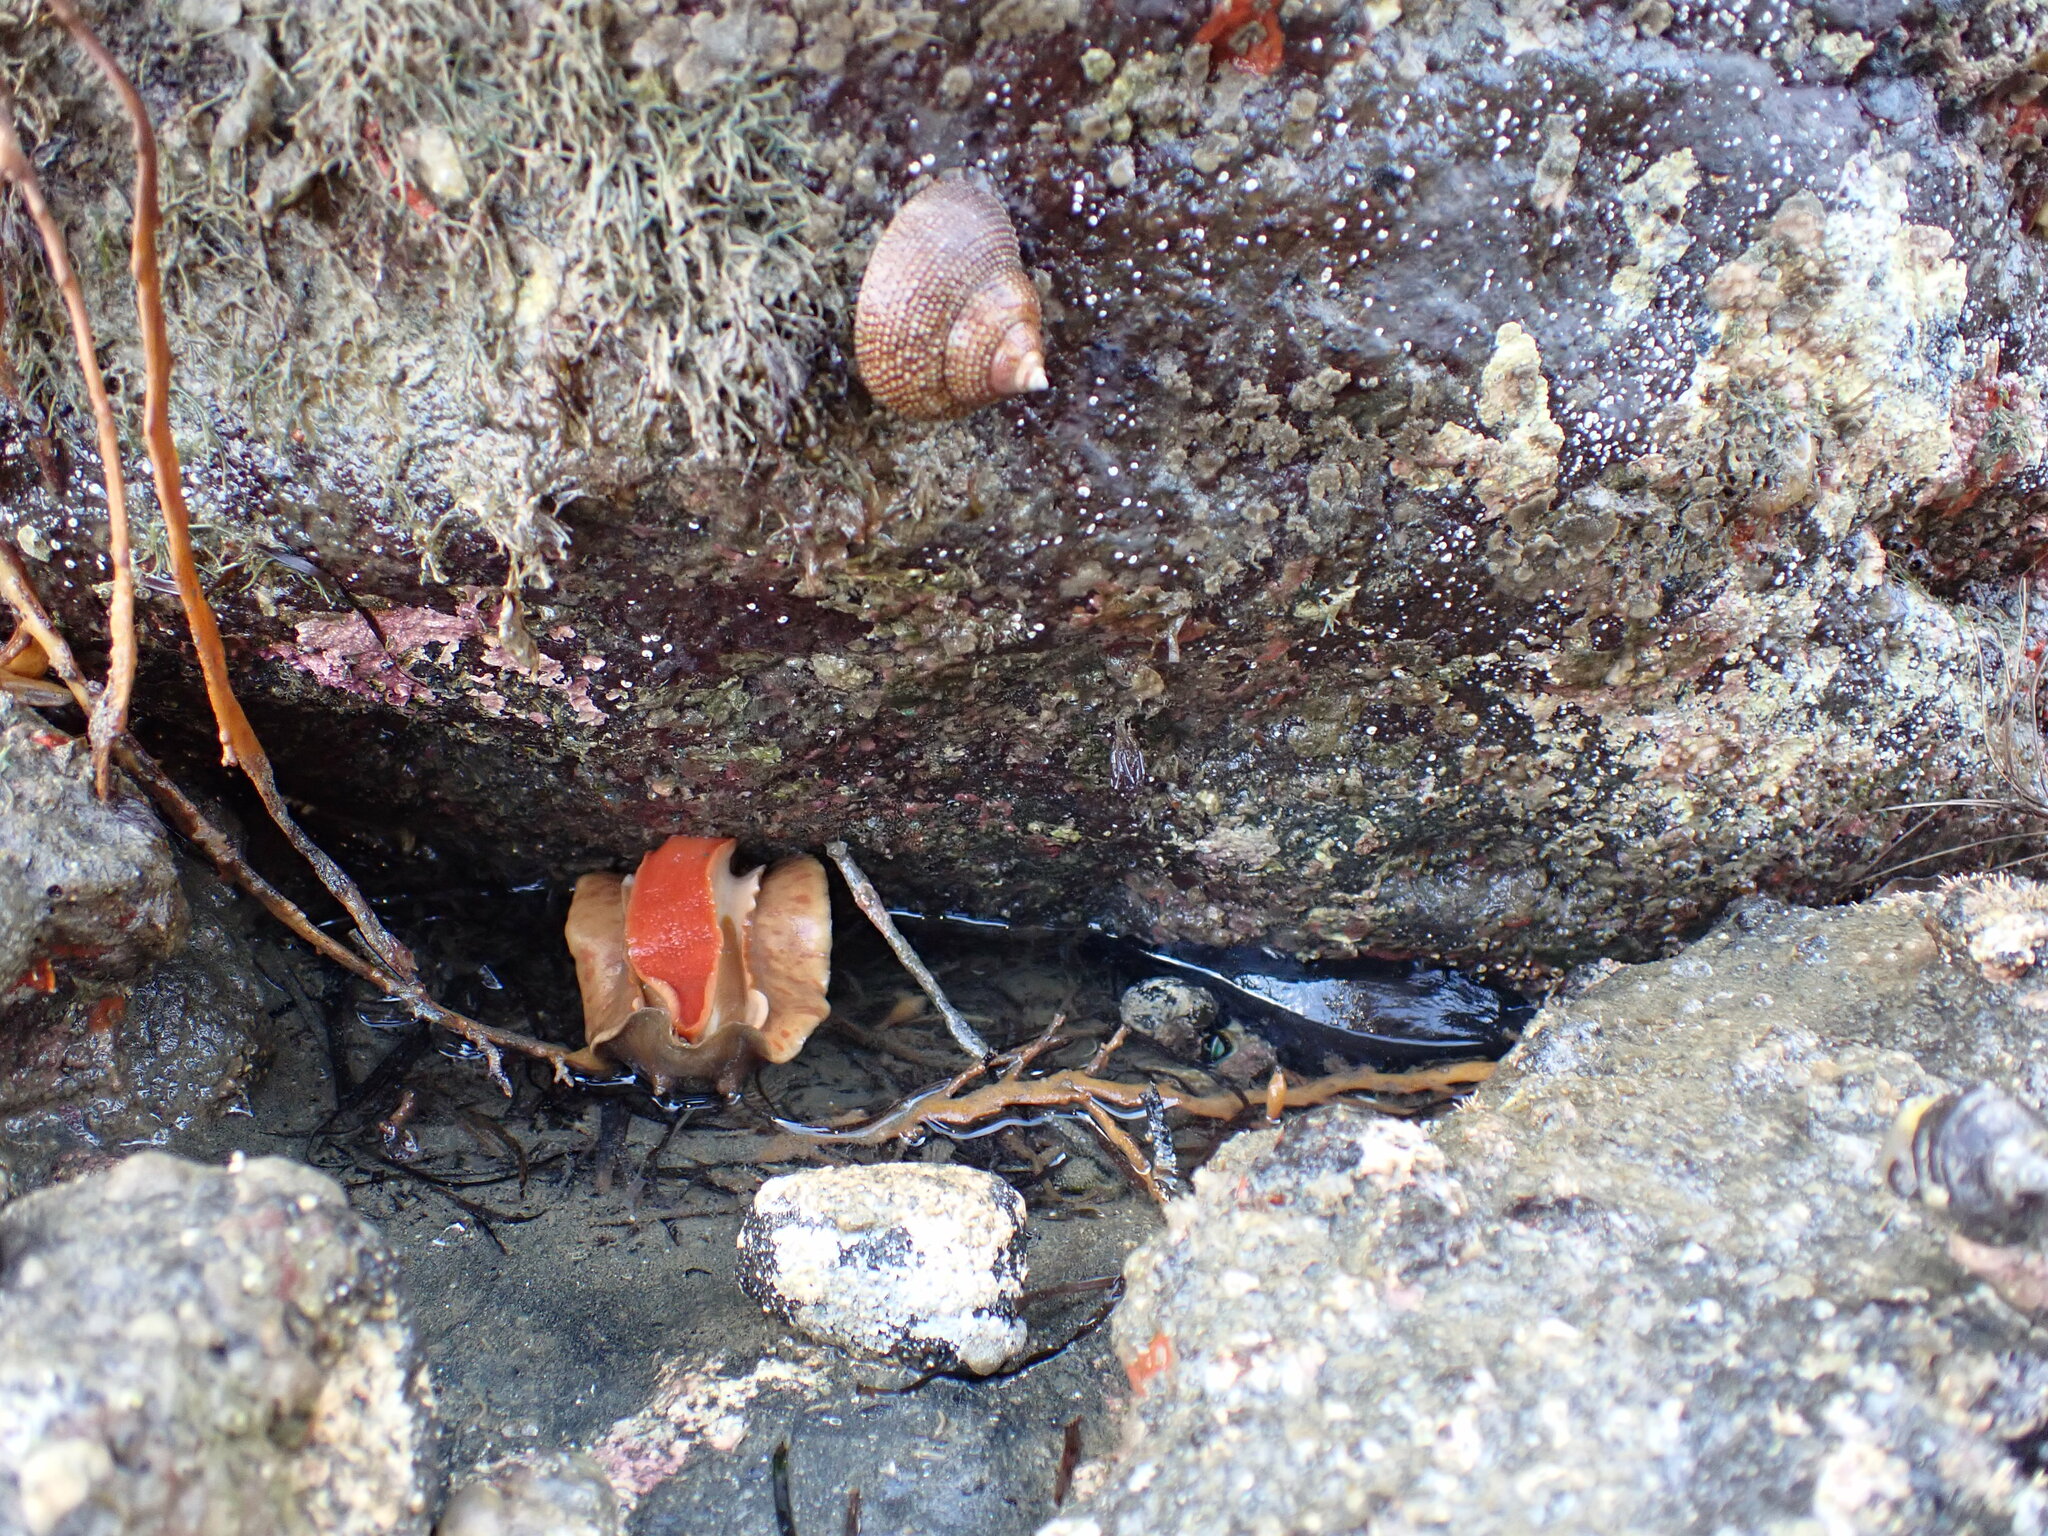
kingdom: Animalia
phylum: Mollusca
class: Polyplacophora
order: Chitonida
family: Acanthochitonidae
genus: Cryptoconchus
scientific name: Cryptoconchus porosus
